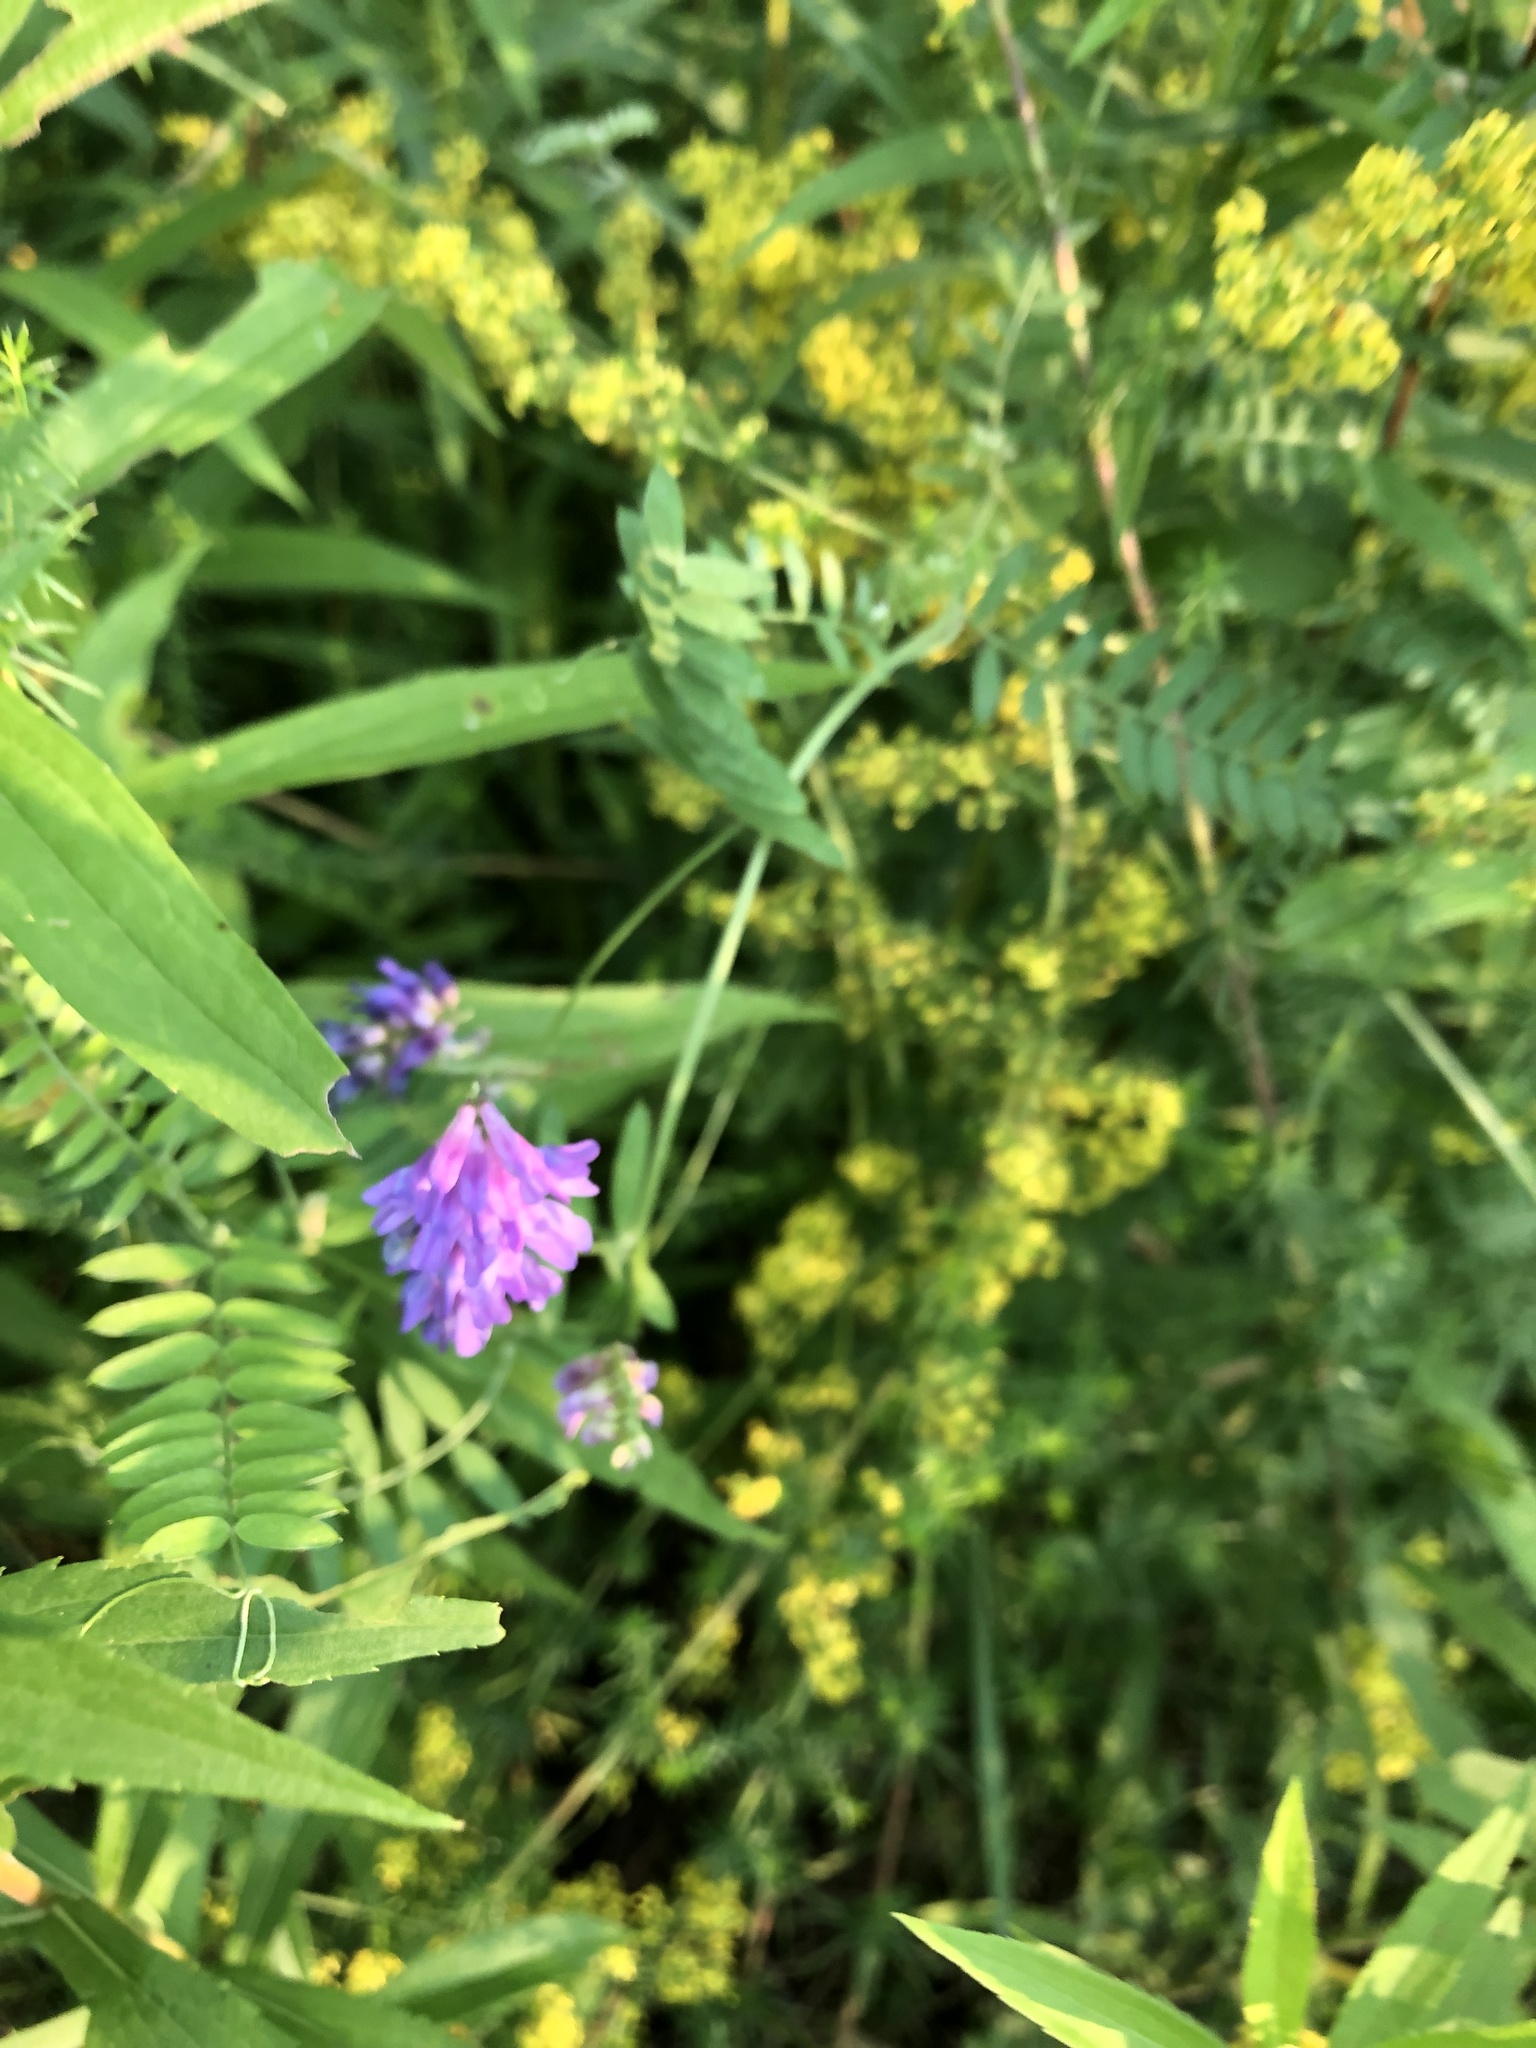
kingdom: Plantae
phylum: Tracheophyta
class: Magnoliopsida
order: Fabales
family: Fabaceae
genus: Vicia
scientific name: Vicia cracca
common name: Bird vetch
